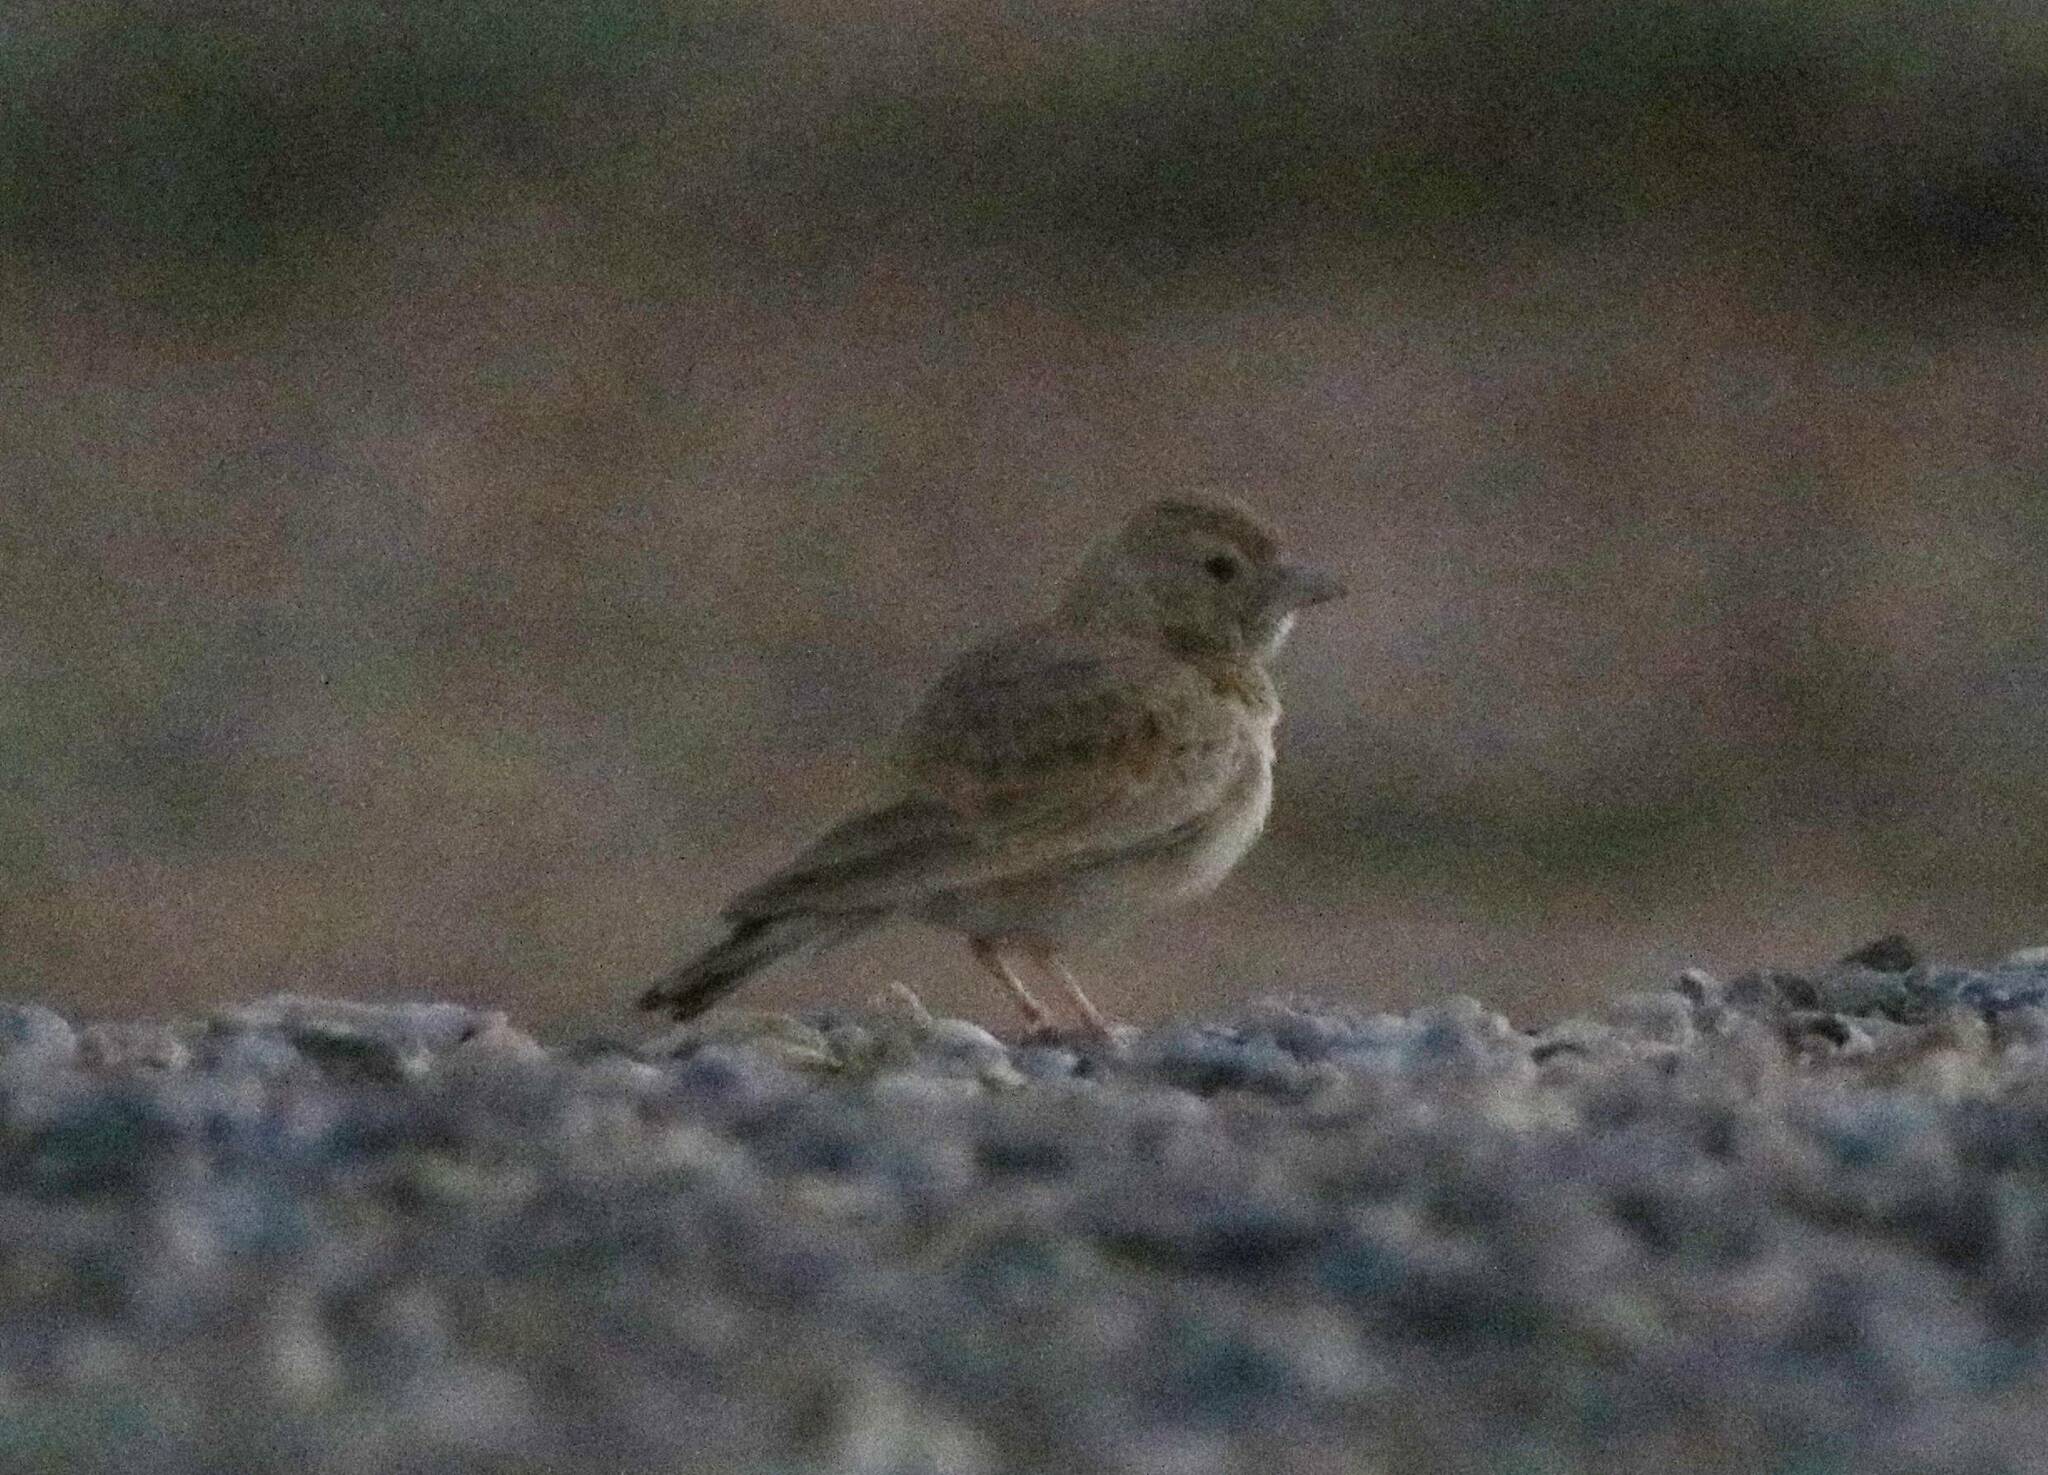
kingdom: Animalia
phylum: Chordata
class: Aves
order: Passeriformes
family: Alaudidae
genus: Eremopterix
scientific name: Eremopterix nigriceps
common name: Black-crowned sparrow-lark
